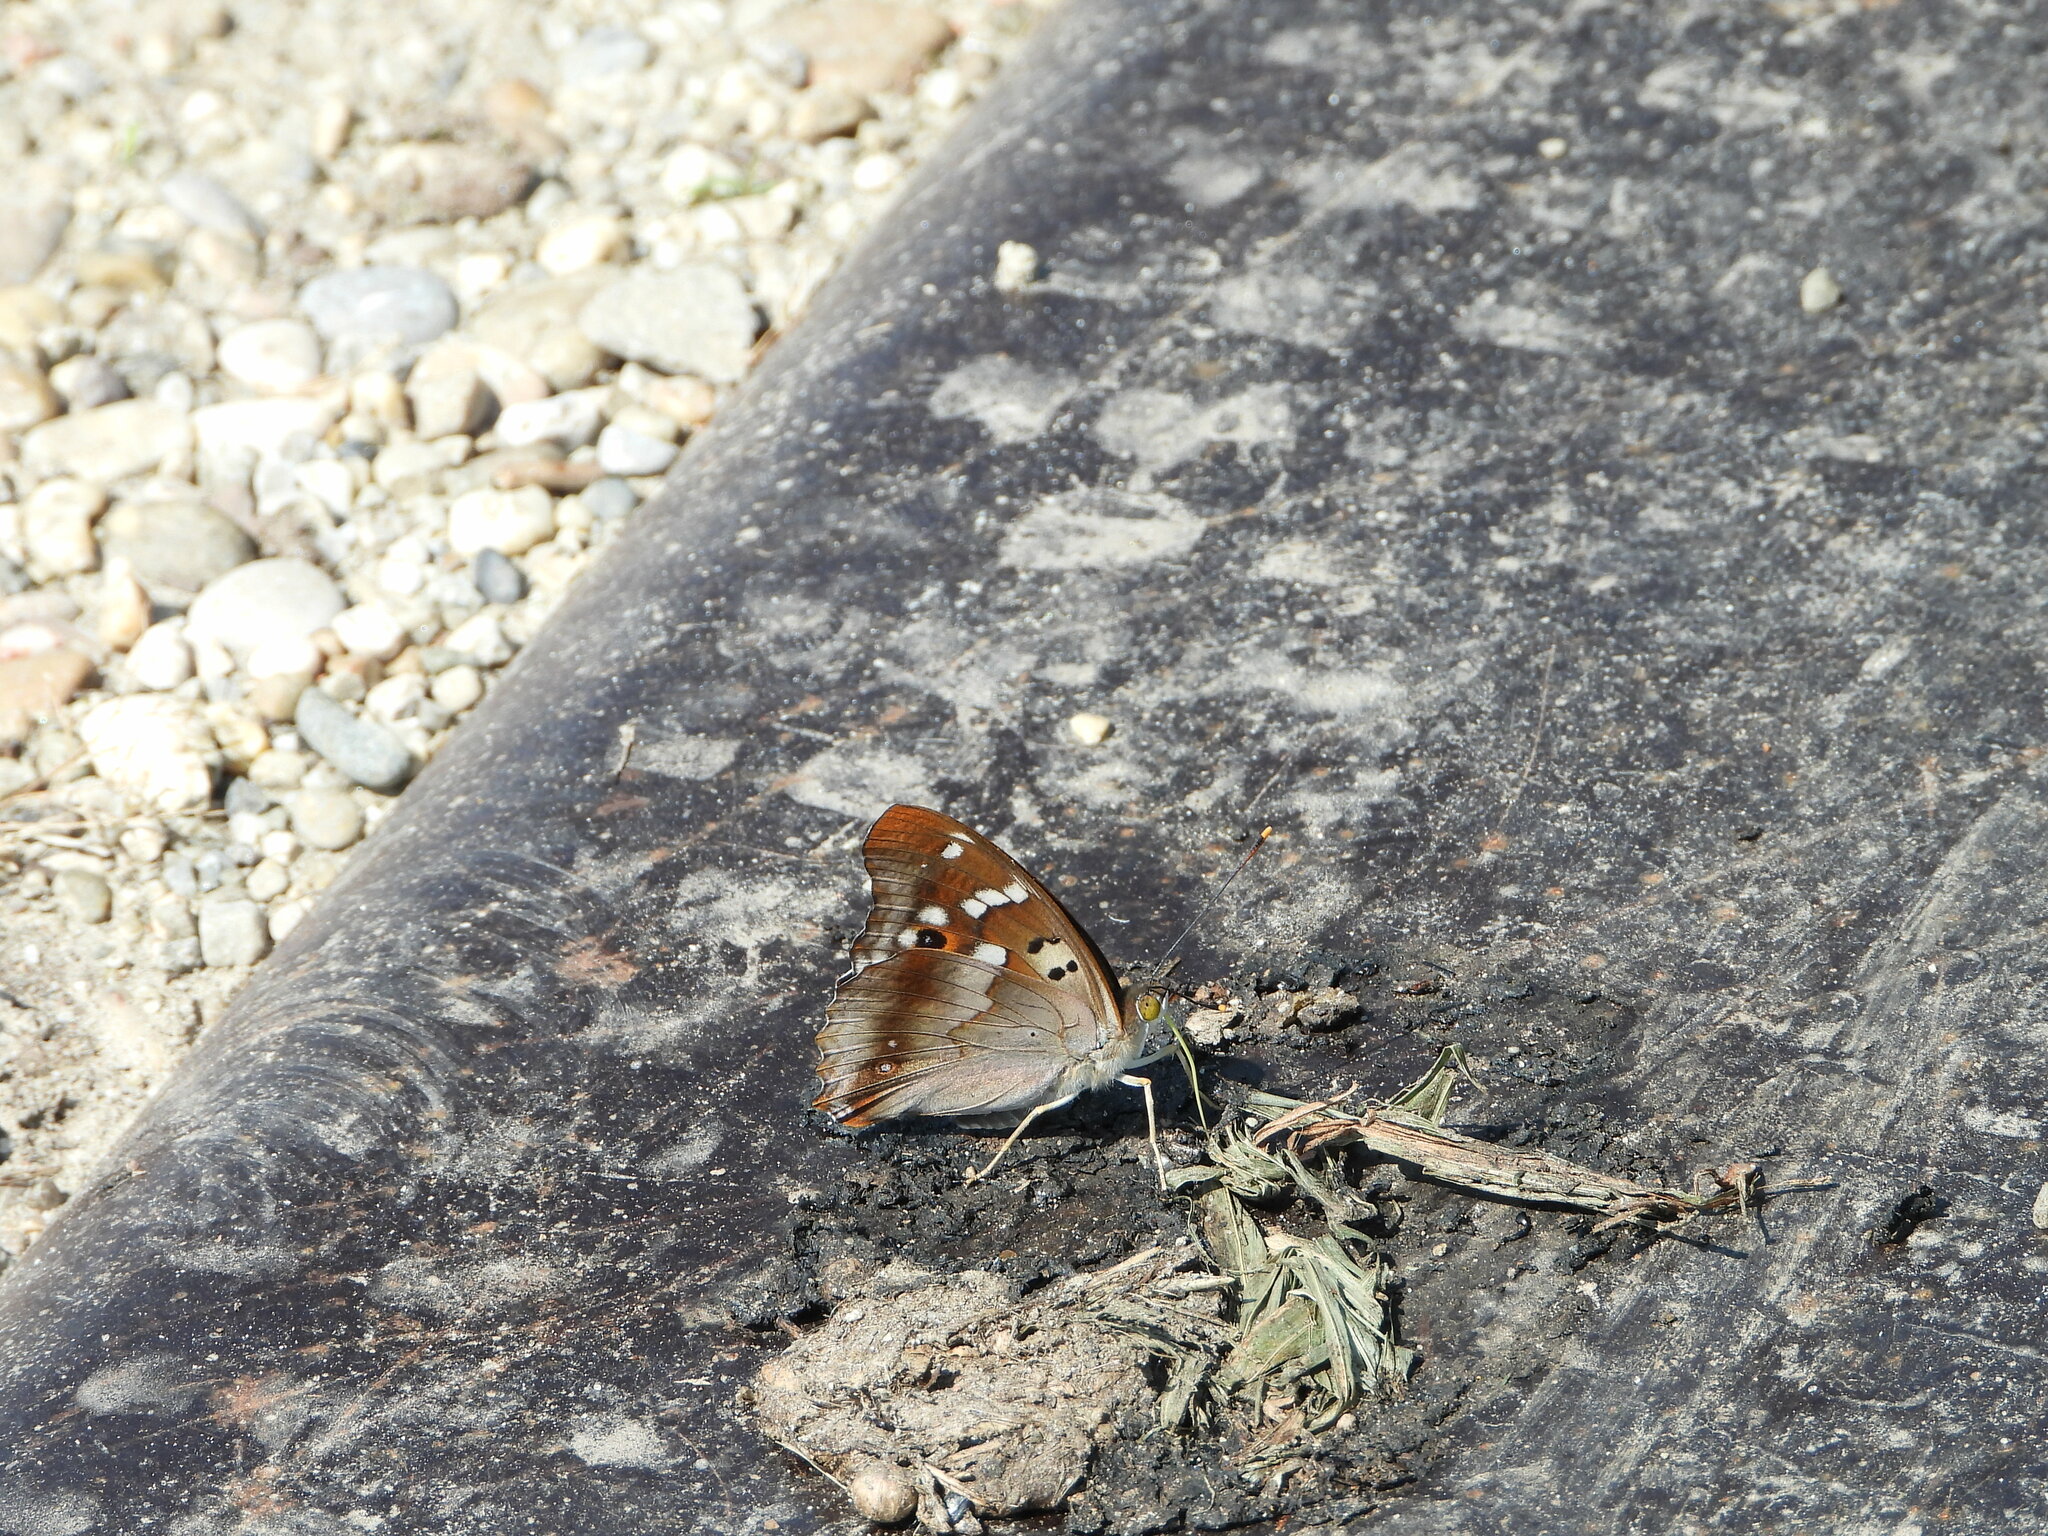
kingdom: Animalia
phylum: Arthropoda
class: Insecta
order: Lepidoptera
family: Nymphalidae
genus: Apatura
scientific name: Apatura ilia
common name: Lesser purple emperor
